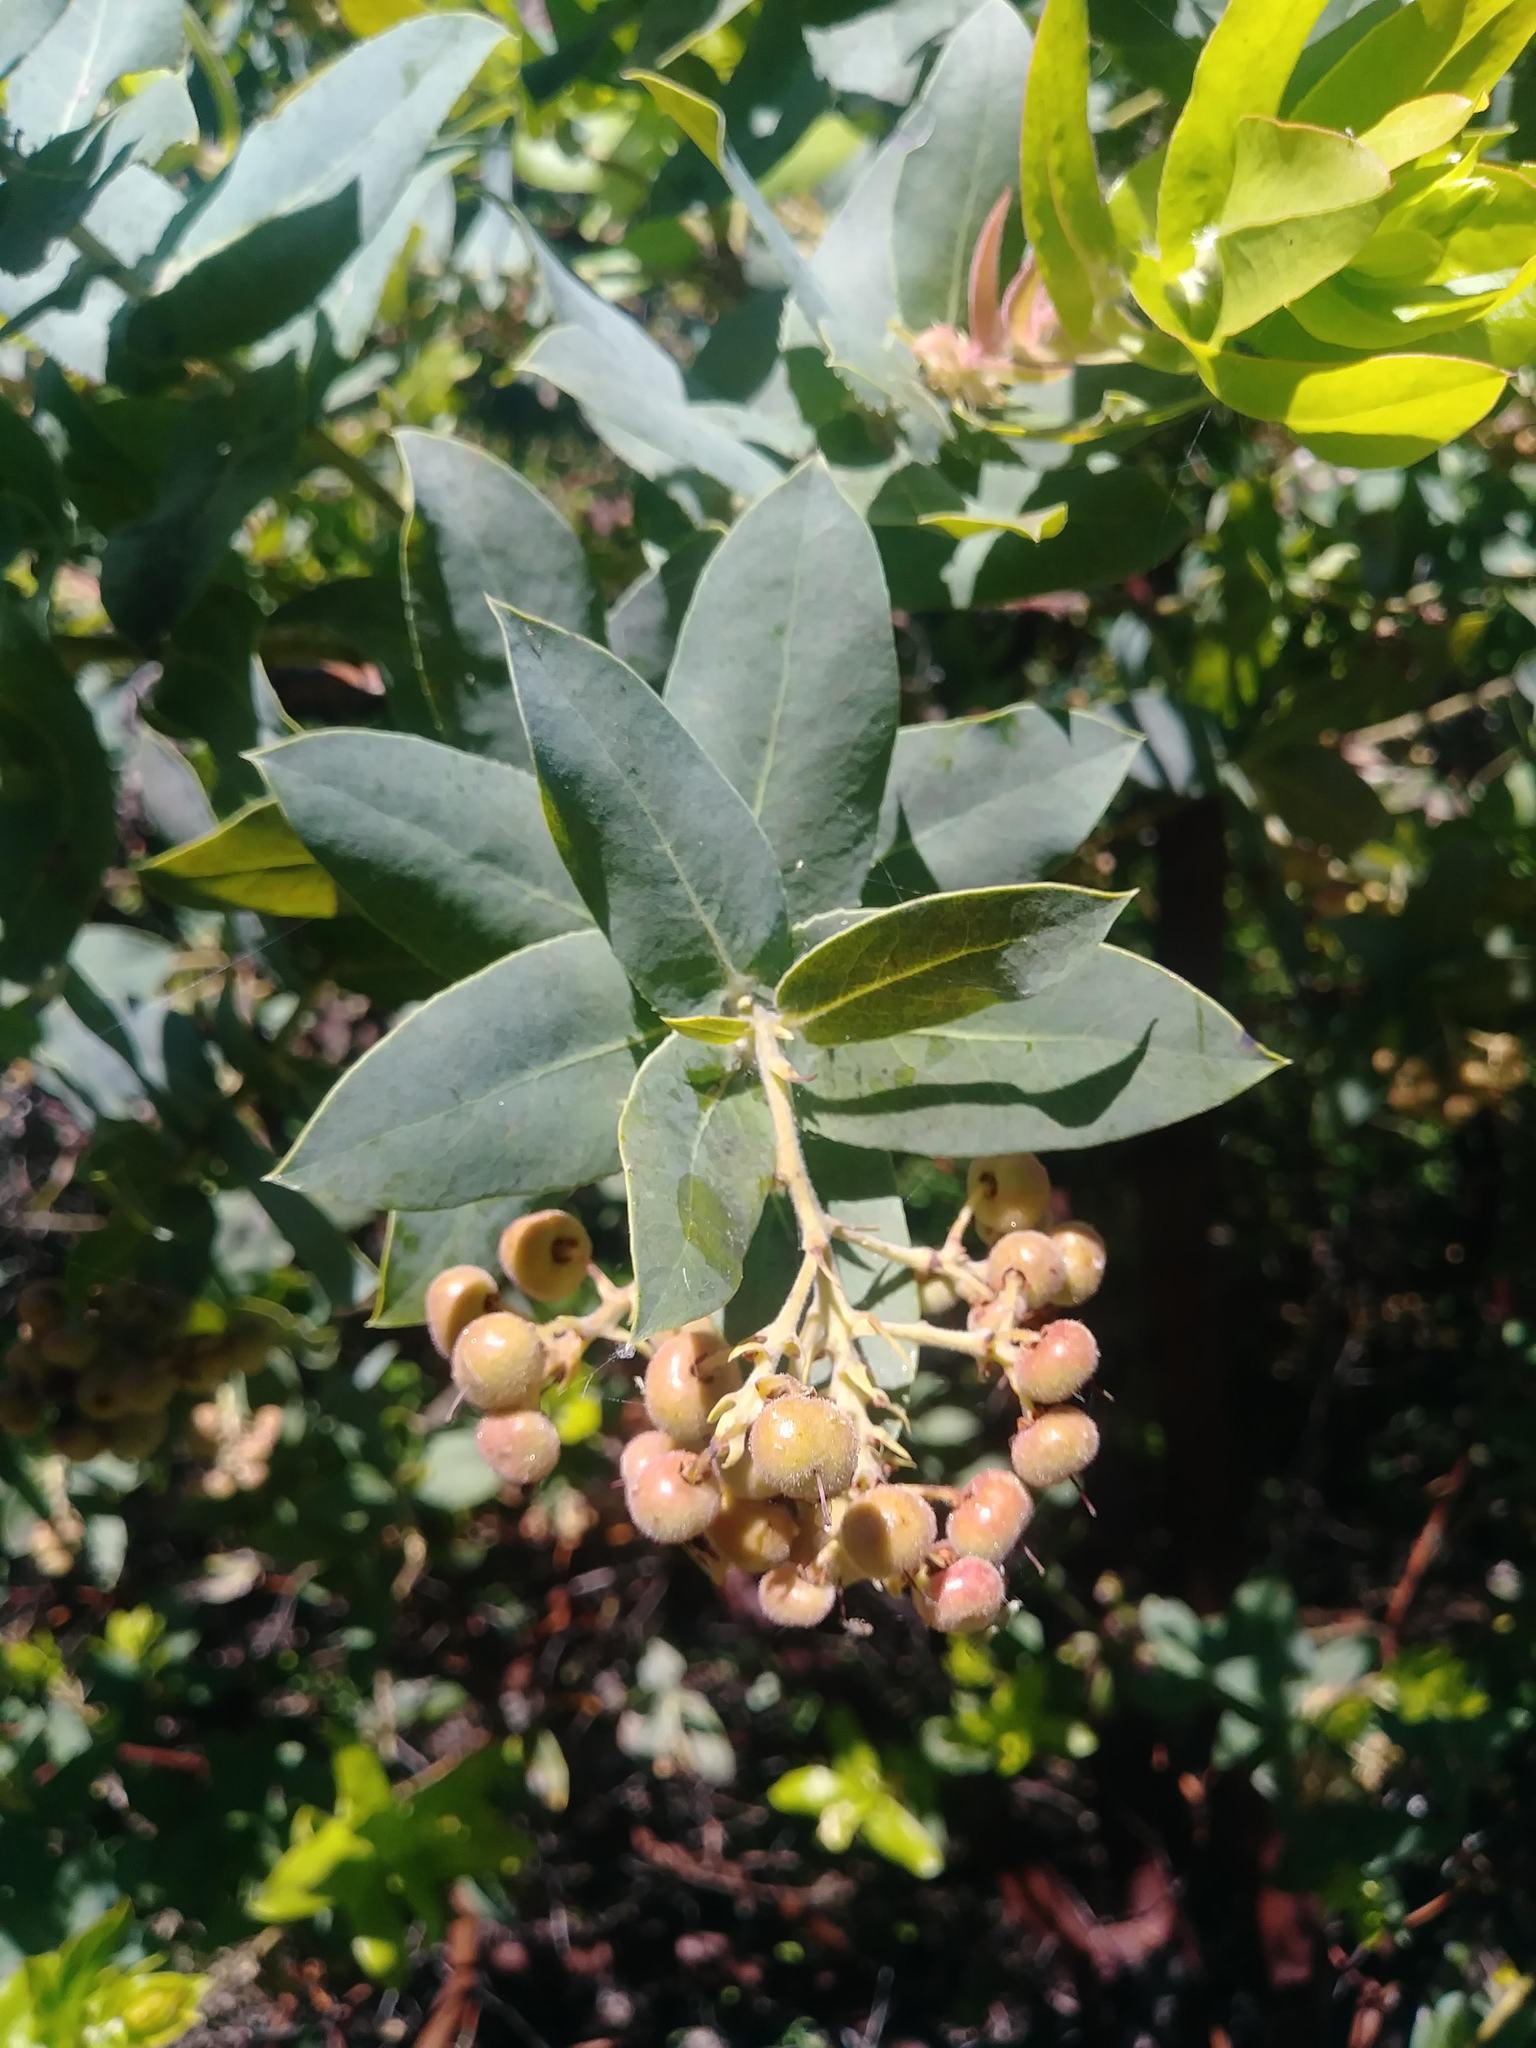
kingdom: Plantae
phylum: Tracheophyta
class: Magnoliopsida
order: Ericales
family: Ericaceae
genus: Arctostaphylos
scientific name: Arctostaphylos andersonii
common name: Santa cruz manzanita
